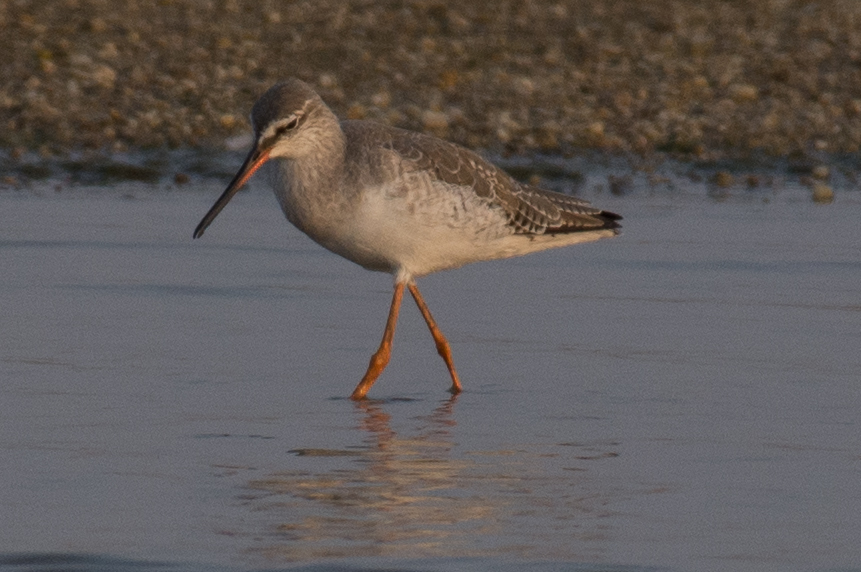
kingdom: Animalia
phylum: Chordata
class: Aves
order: Charadriiformes
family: Scolopacidae
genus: Tringa
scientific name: Tringa erythropus
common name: Spotted redshank
